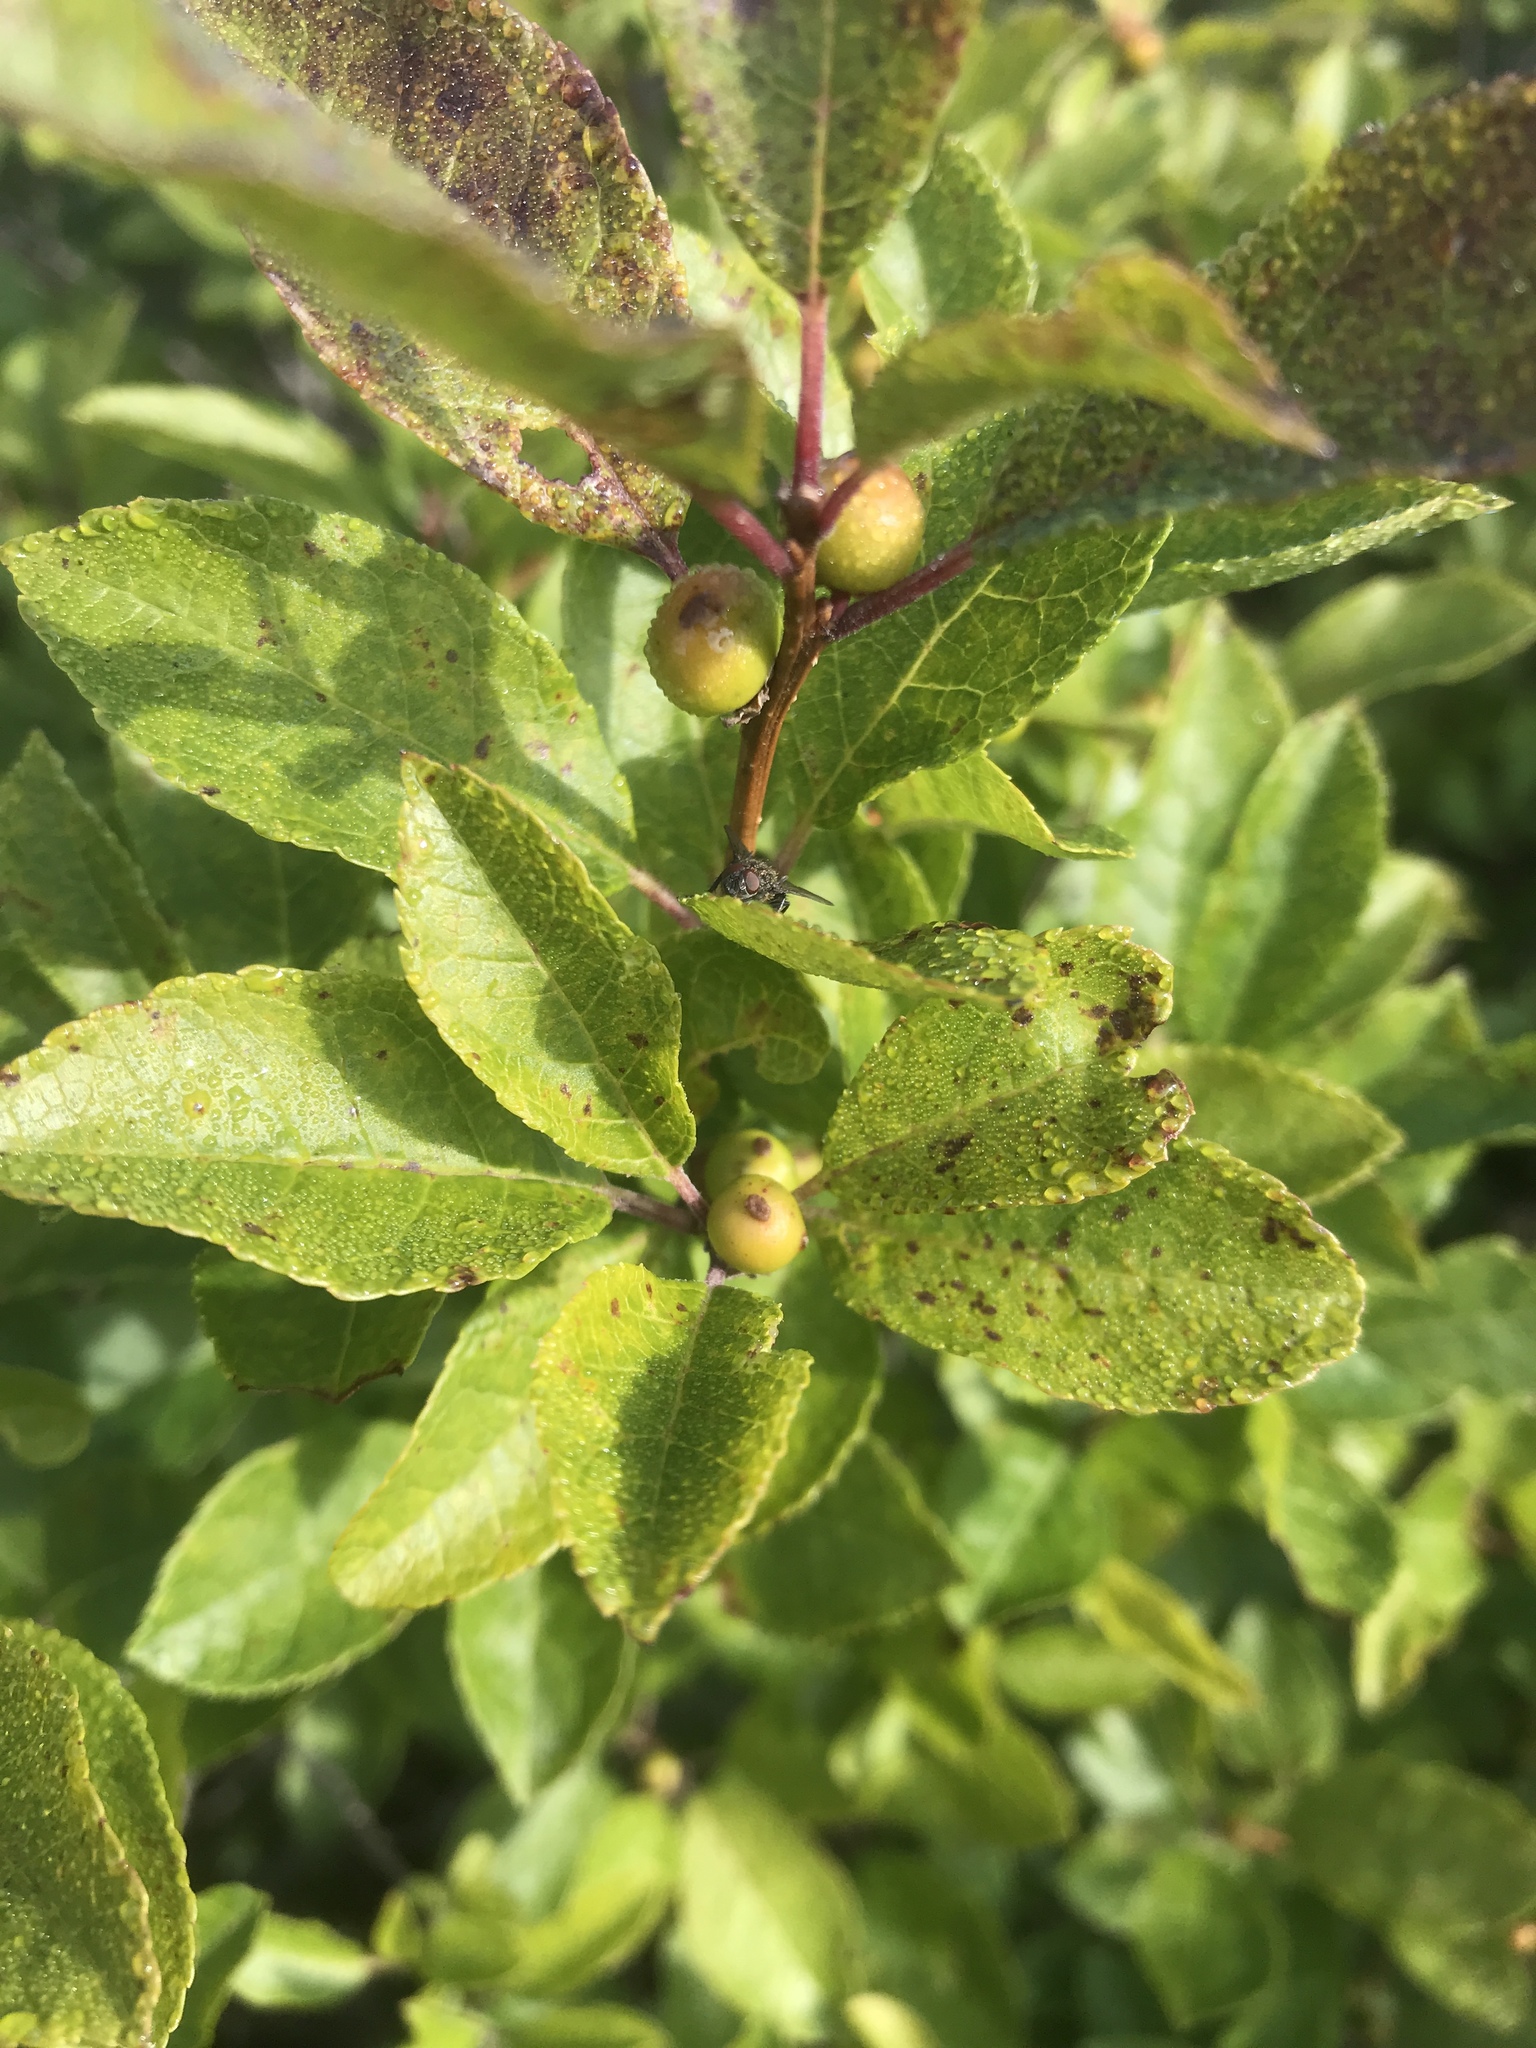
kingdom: Plantae
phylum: Tracheophyta
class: Magnoliopsida
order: Aquifoliales
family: Aquifoliaceae
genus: Ilex
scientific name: Ilex verticillata
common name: Virginia winterberry
